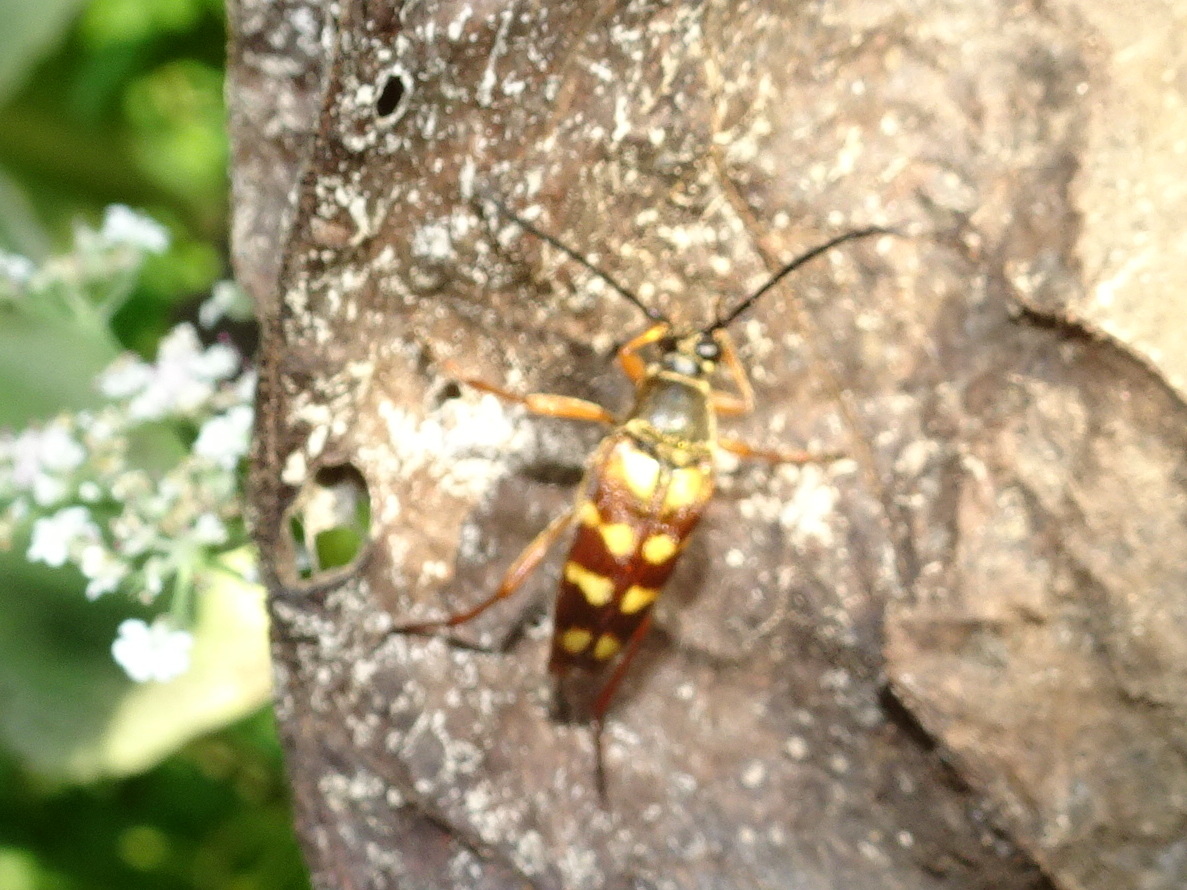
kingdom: Animalia
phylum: Arthropoda
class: Insecta
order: Coleoptera
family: Cerambycidae
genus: Typocerus
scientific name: Typocerus velutinus
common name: Banded longhorn beetle
